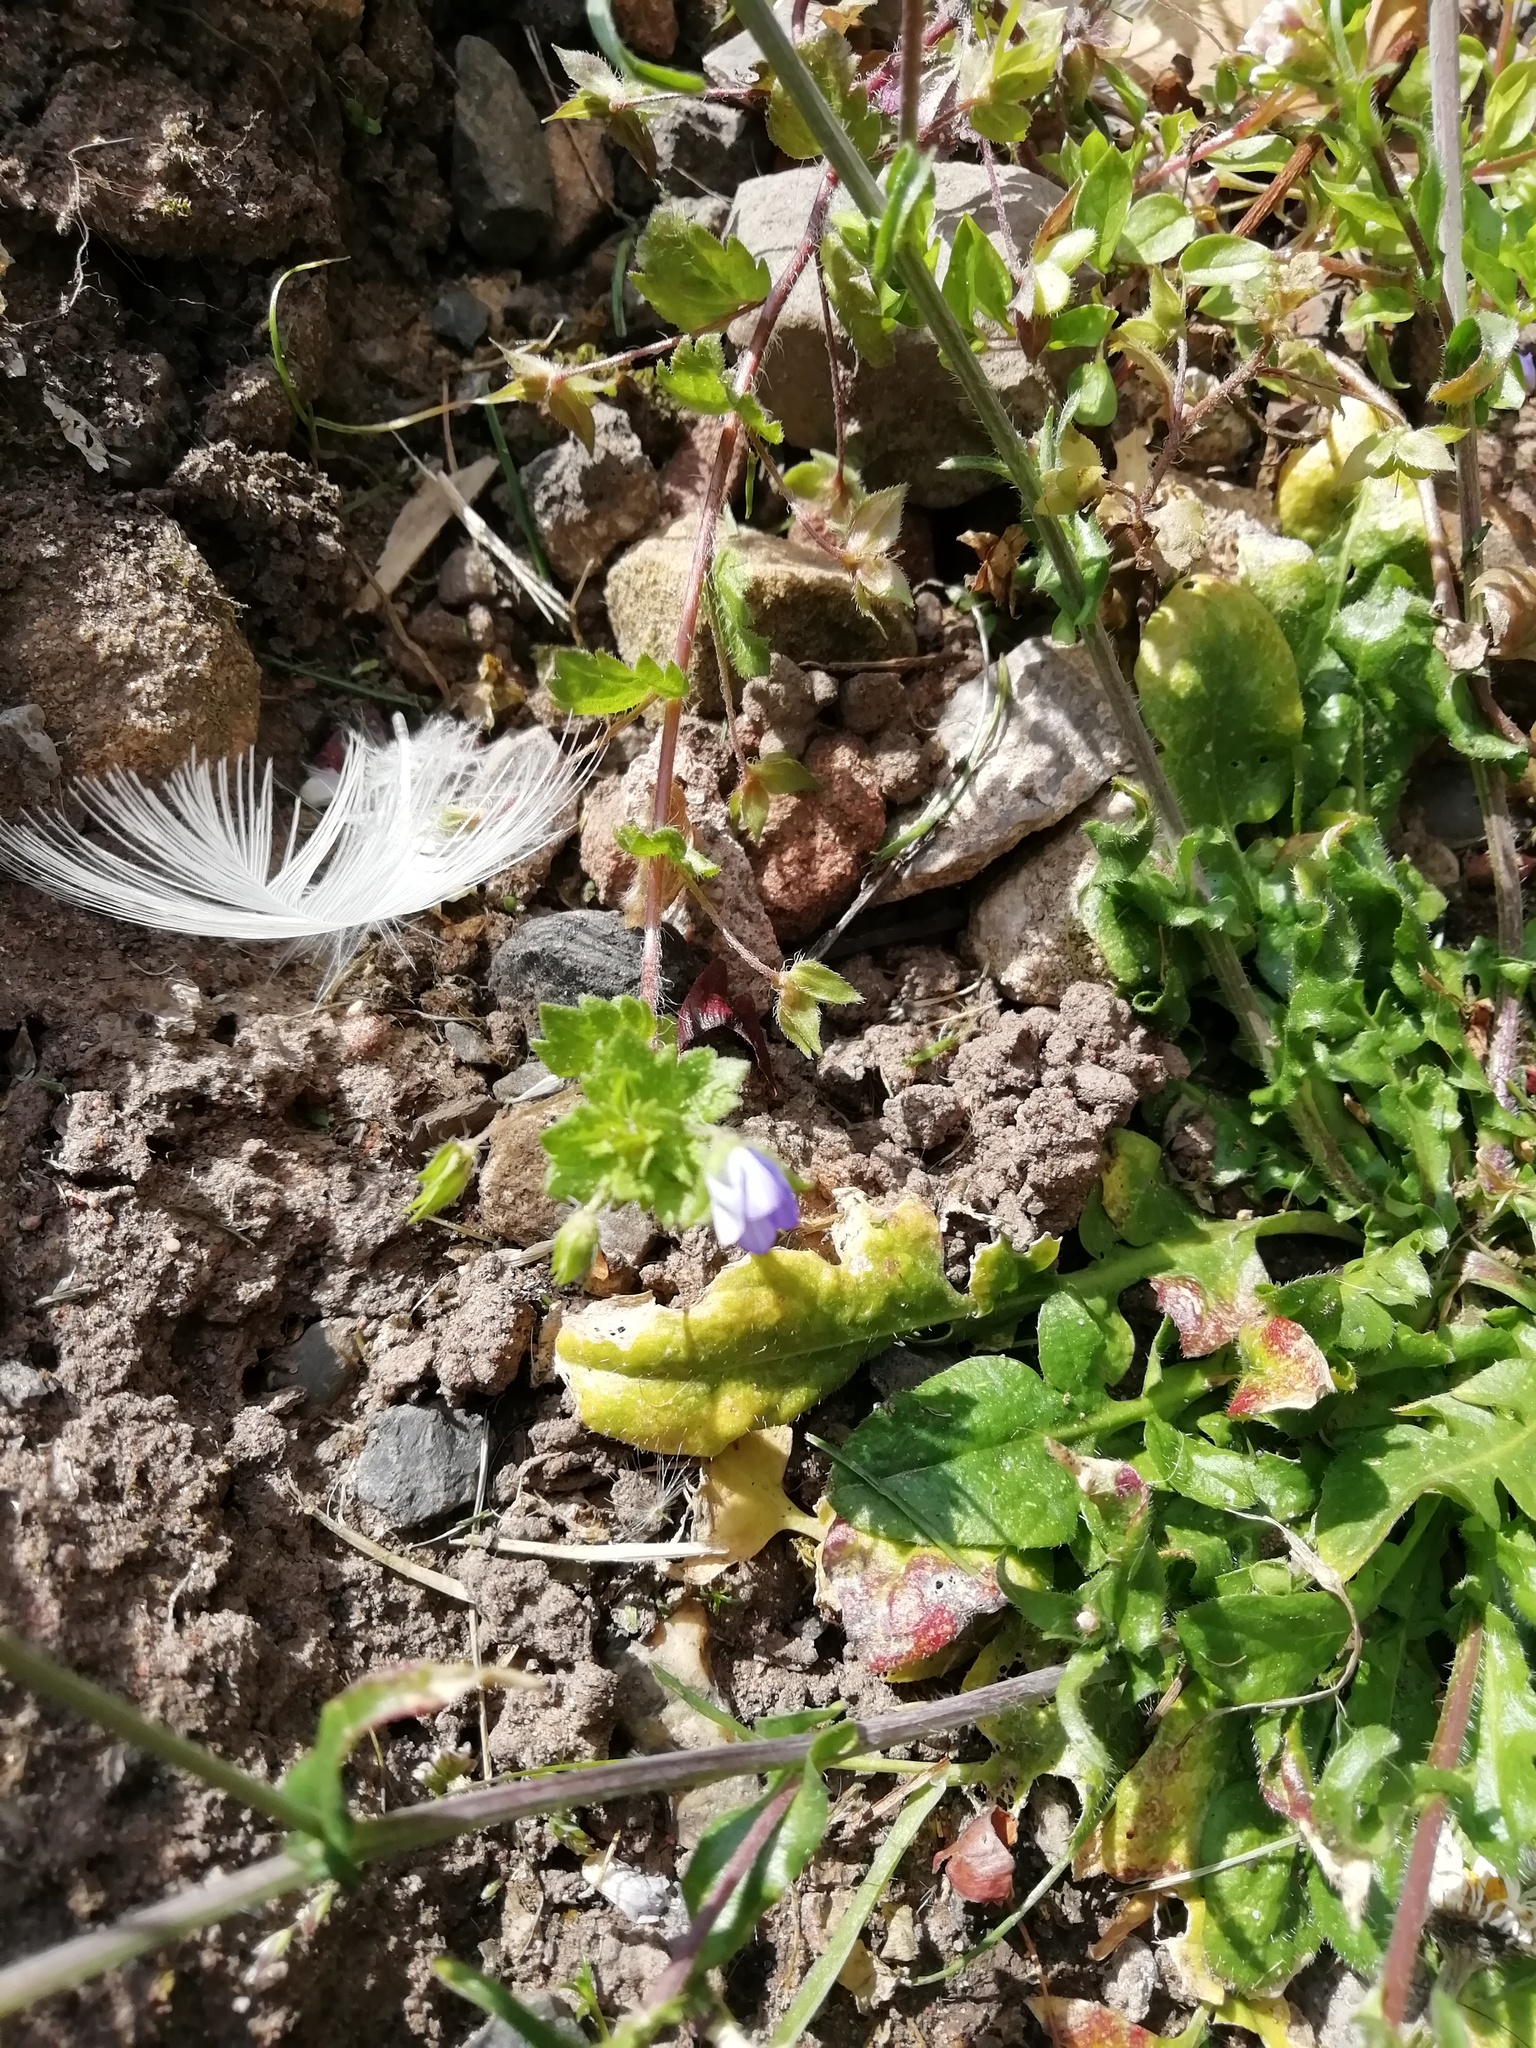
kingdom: Plantae
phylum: Tracheophyta
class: Magnoliopsida
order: Lamiales
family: Plantaginaceae
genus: Veronica
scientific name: Veronica persica
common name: Common field-speedwell
